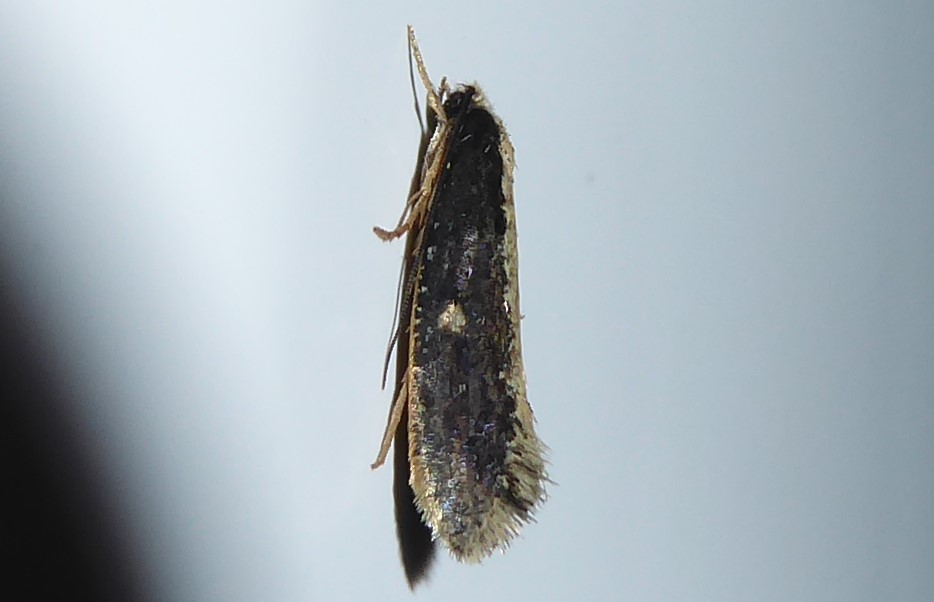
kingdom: Animalia
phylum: Arthropoda
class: Insecta
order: Lepidoptera
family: Tineidae
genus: Monopis
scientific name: Monopis ethelella
